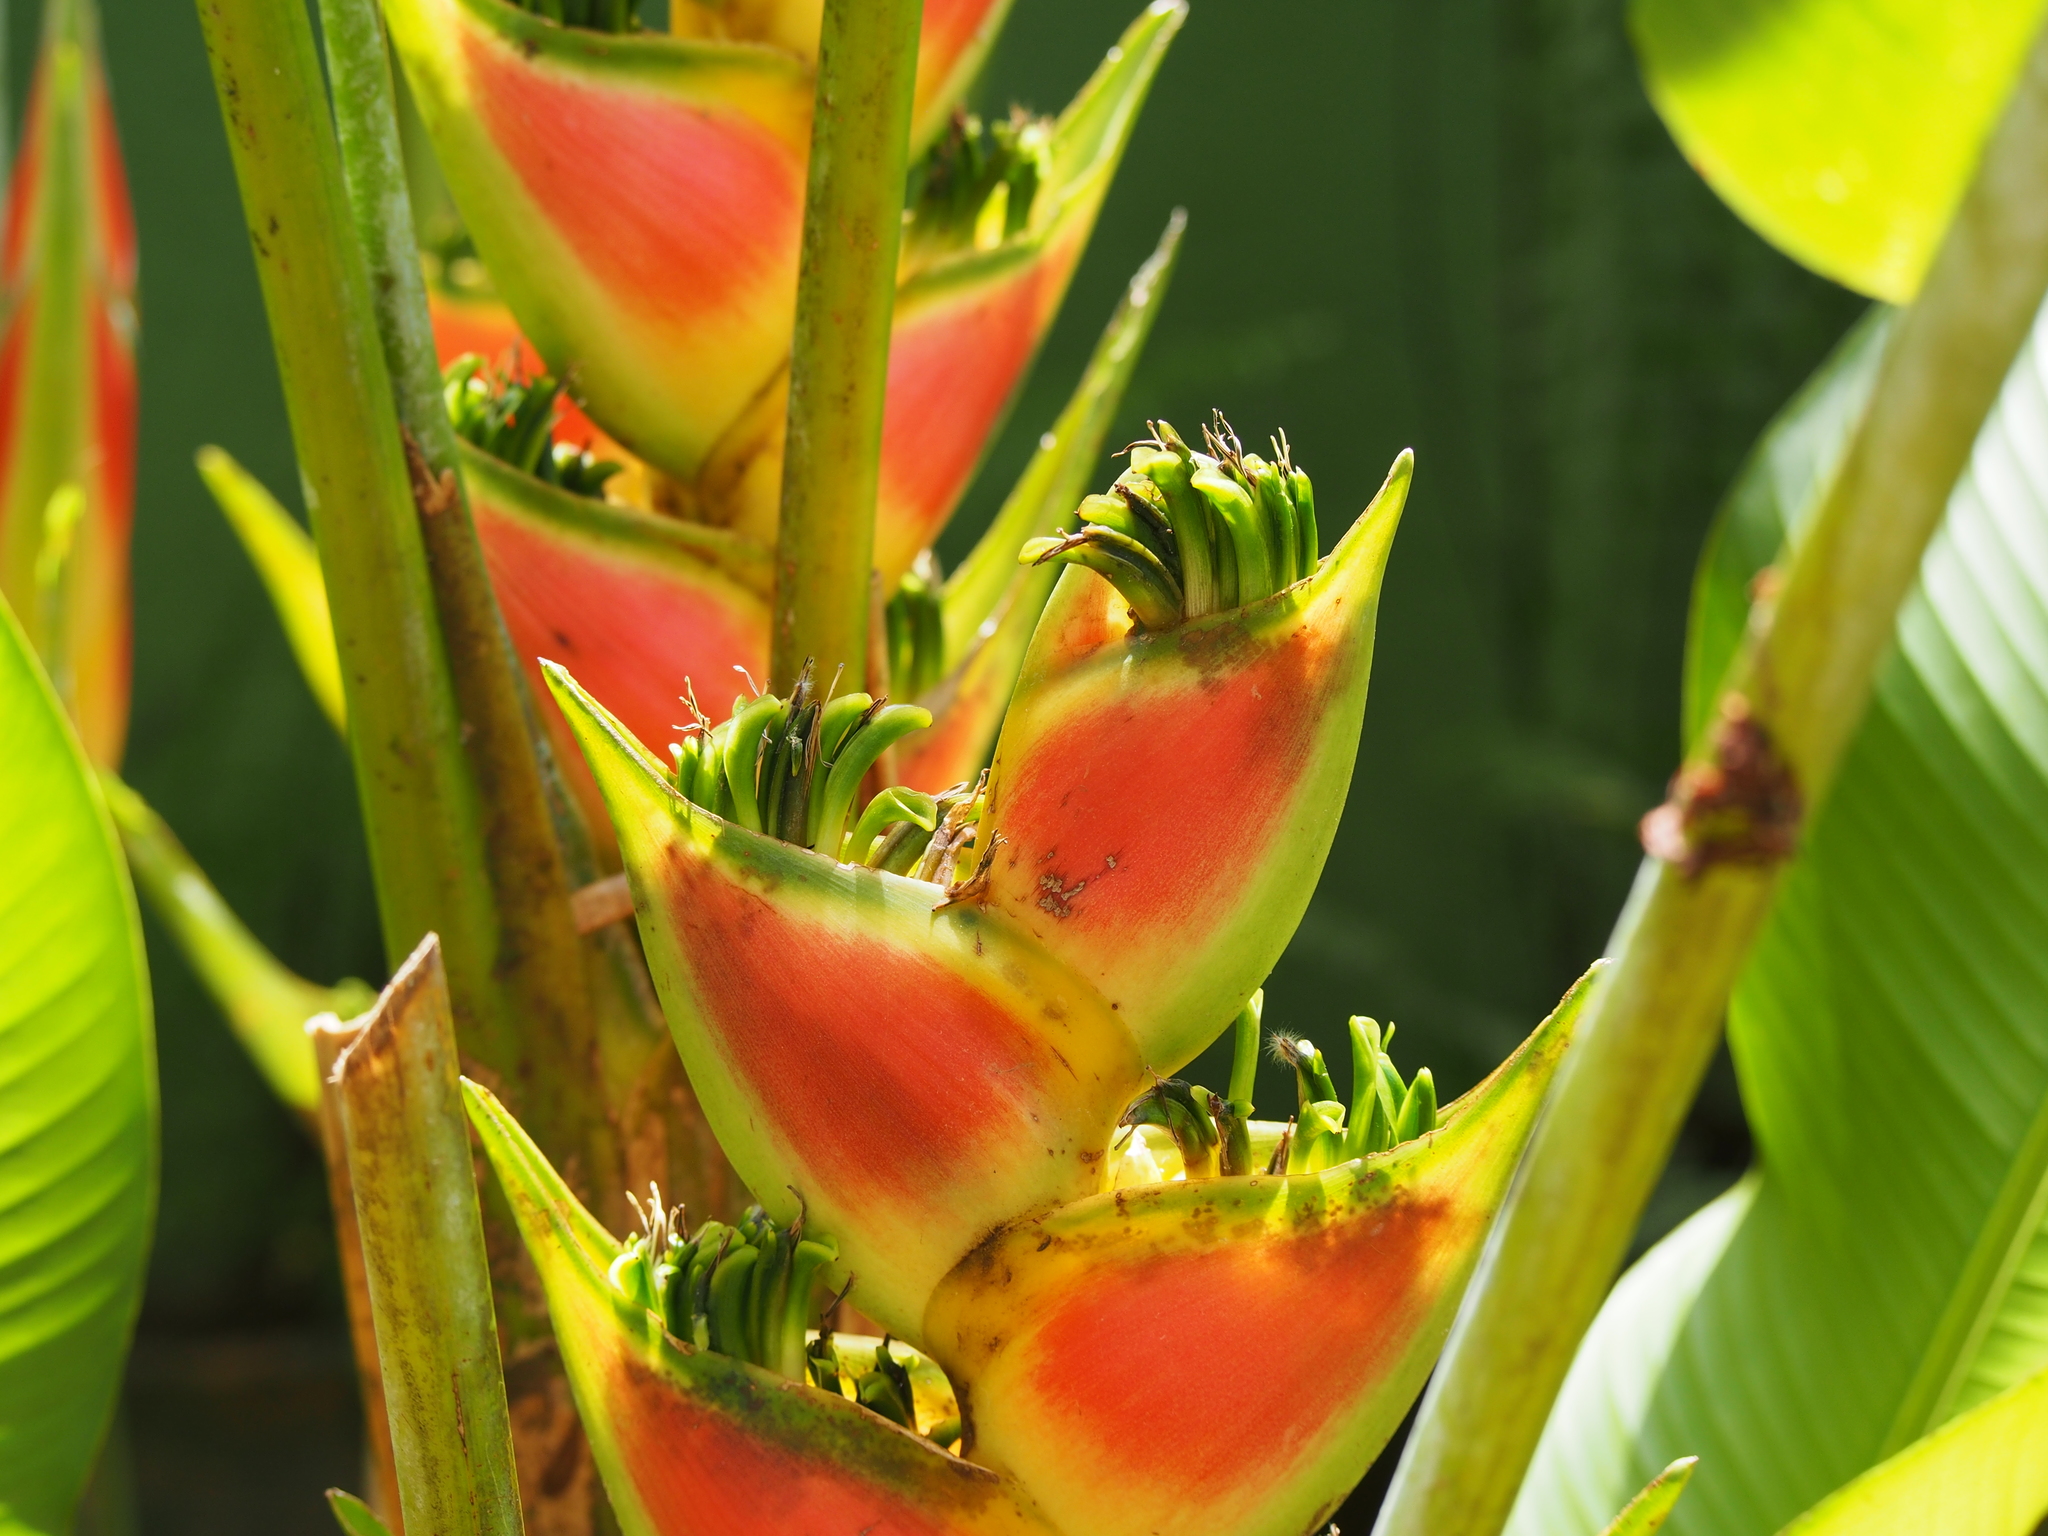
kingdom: Plantae
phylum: Tracheophyta
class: Liliopsida
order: Zingiberales
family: Heliconiaceae
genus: Heliconia
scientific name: Heliconia wagneriana
